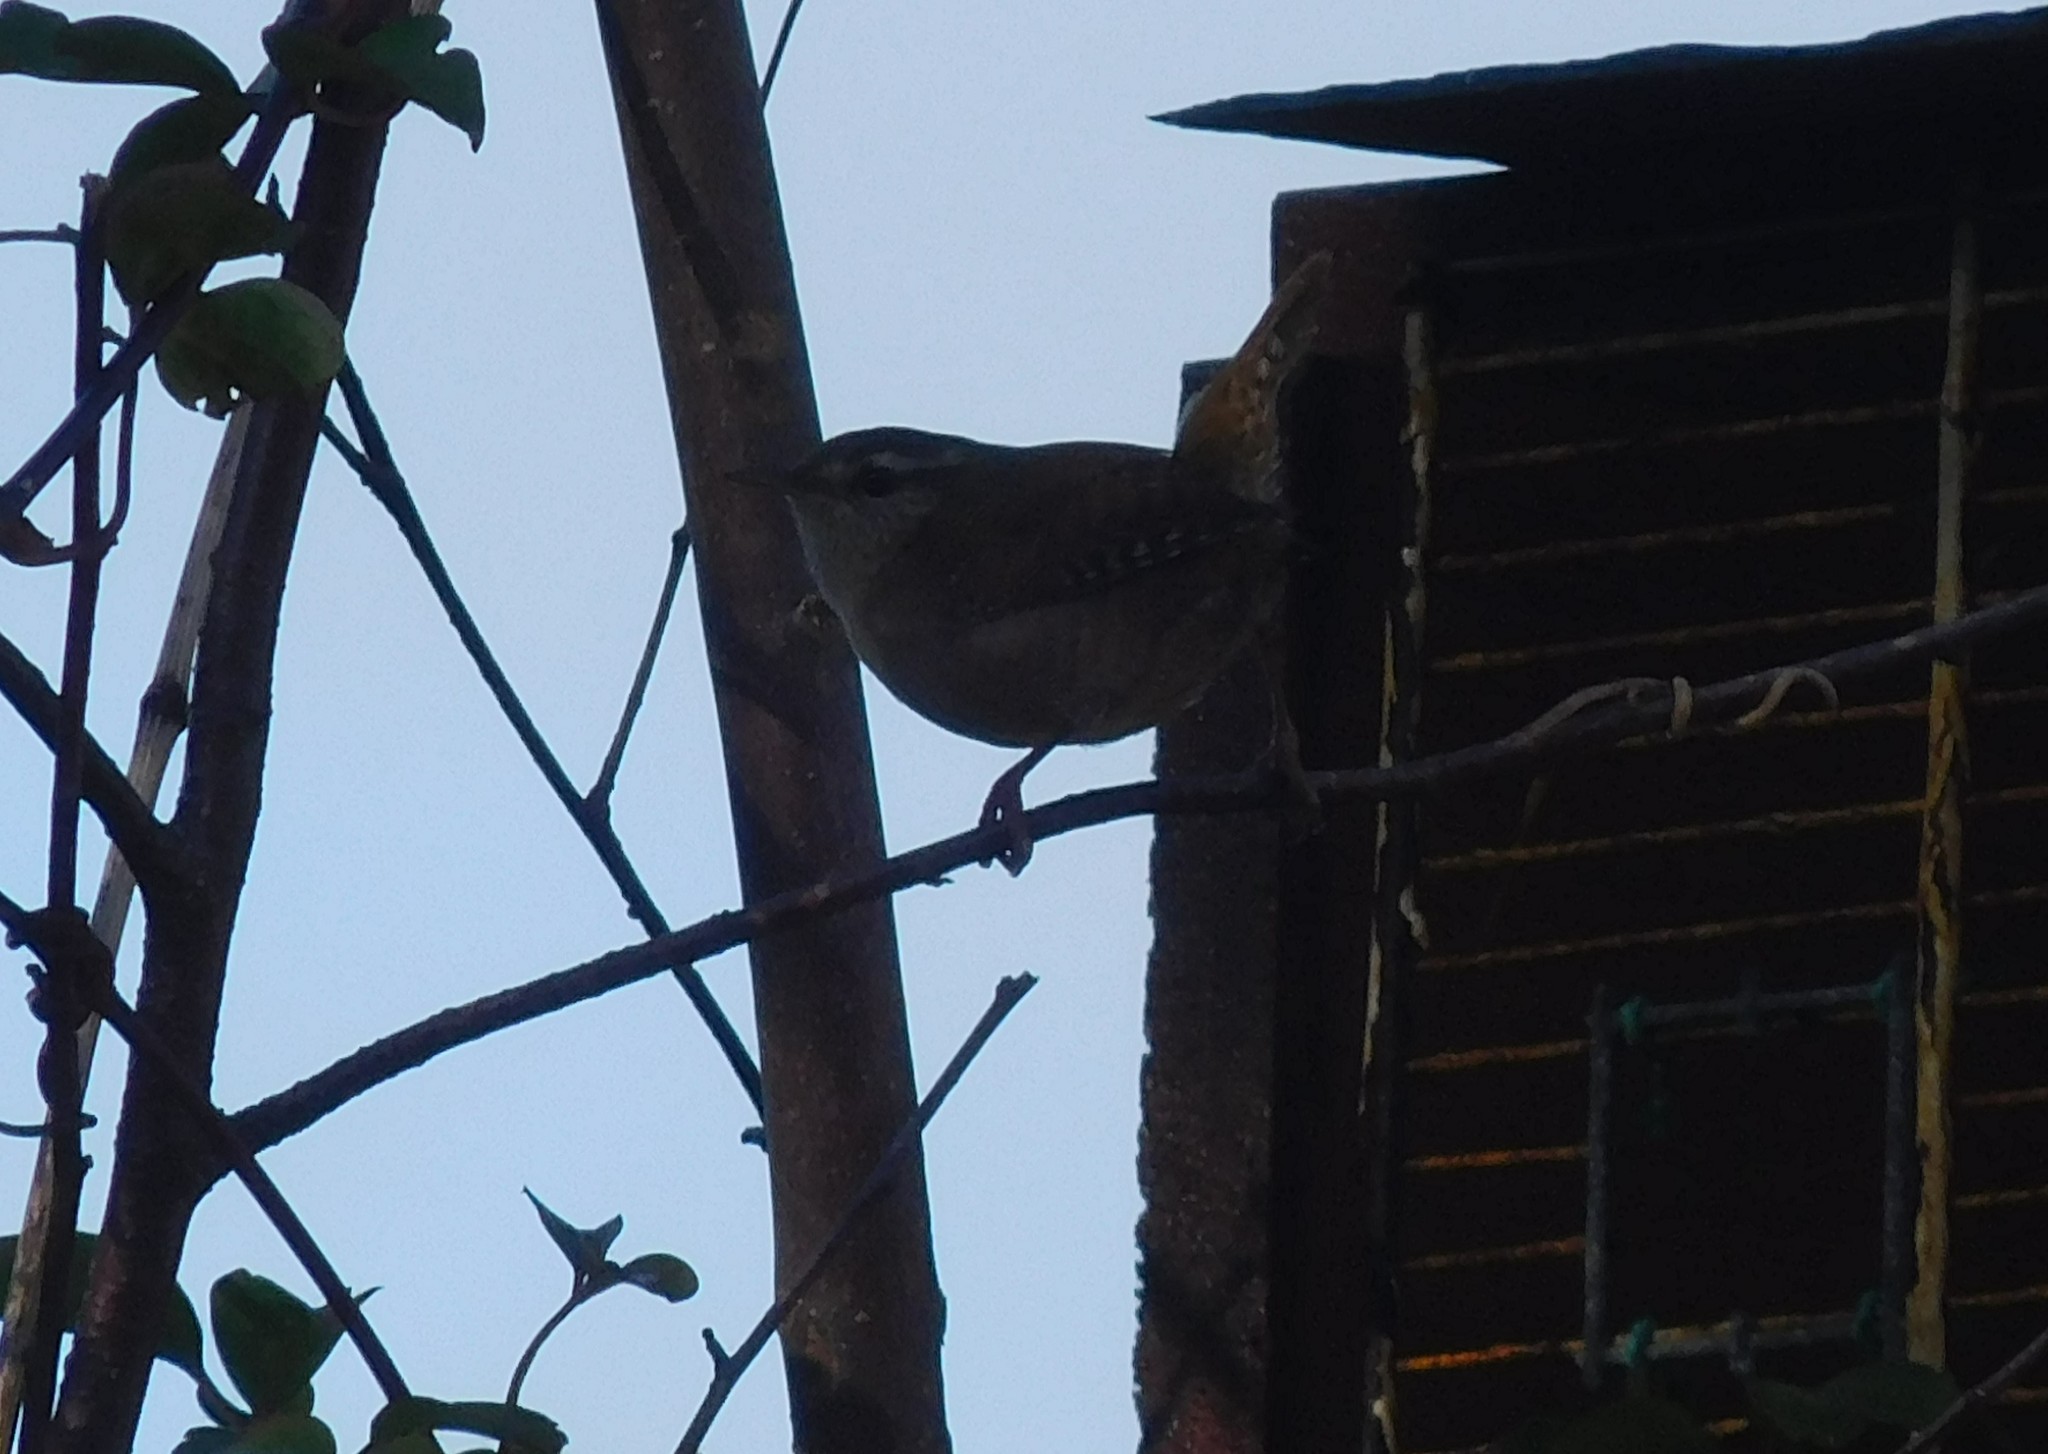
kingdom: Animalia
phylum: Chordata
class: Aves
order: Passeriformes
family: Troglodytidae
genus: Troglodytes
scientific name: Troglodytes troglodytes
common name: Eurasian wren
